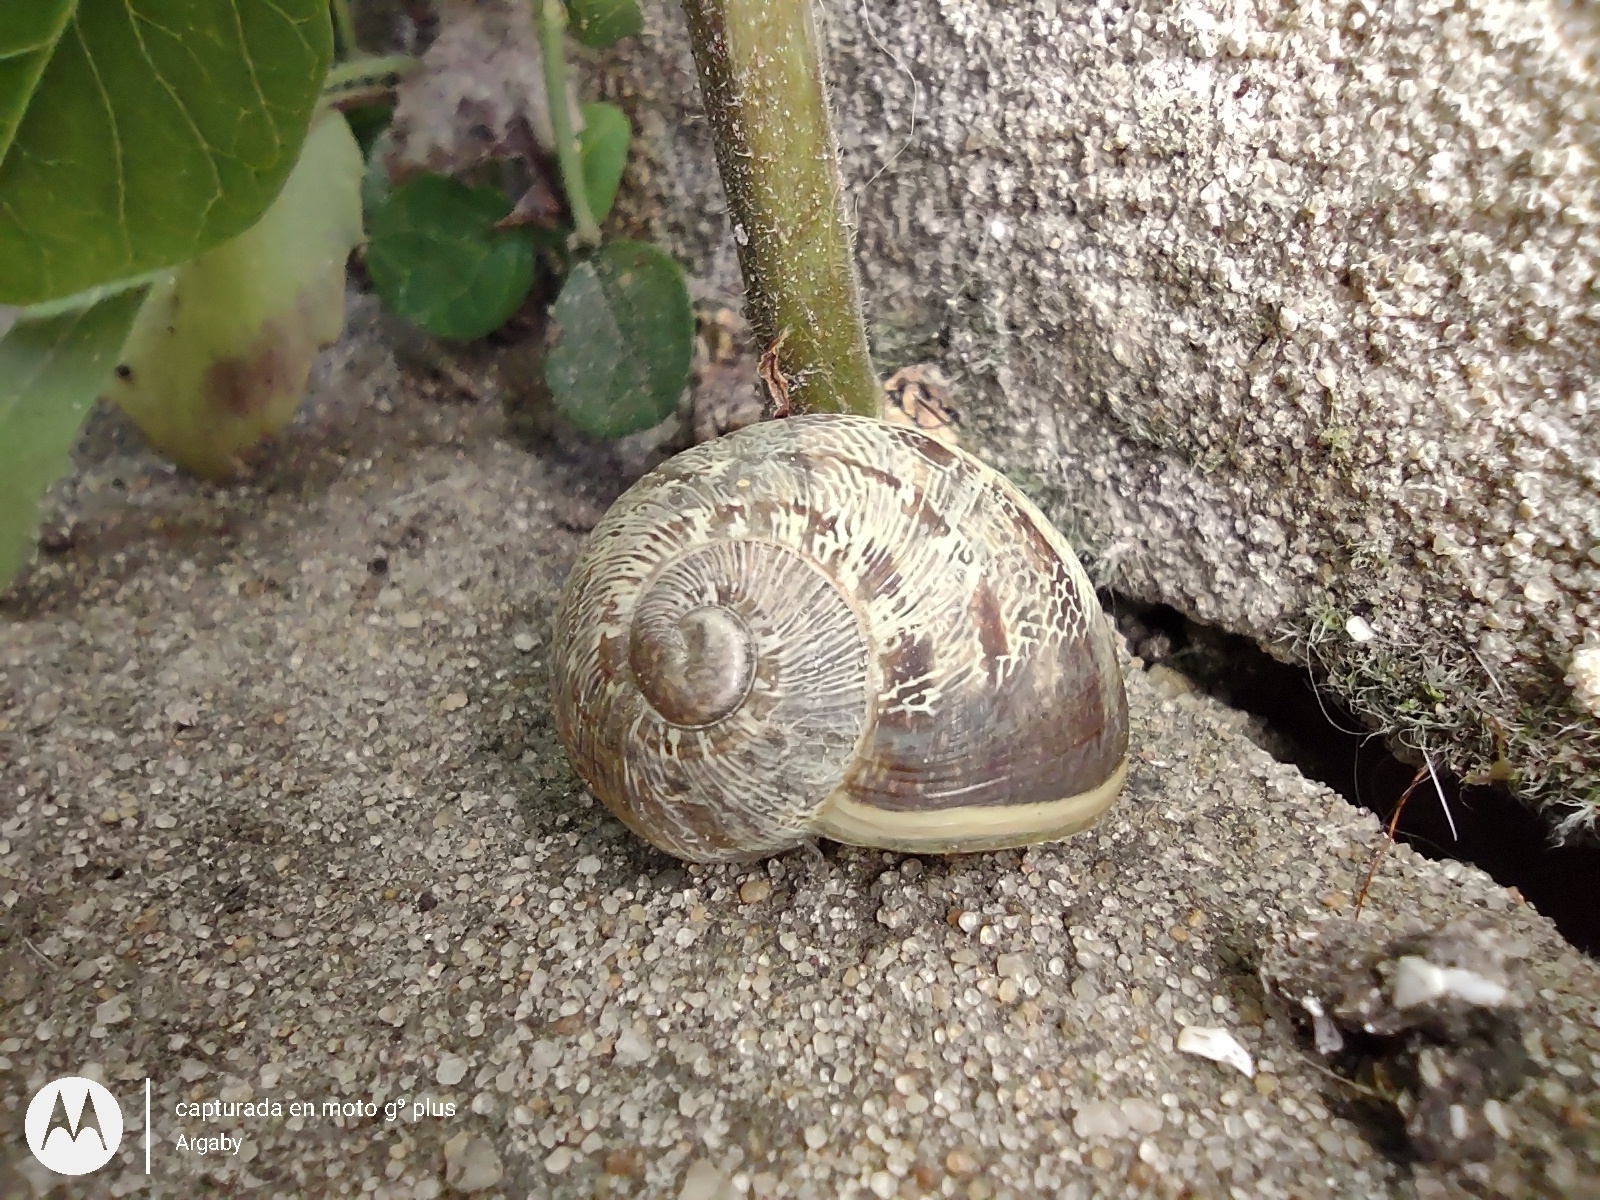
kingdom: Animalia
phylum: Mollusca
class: Gastropoda
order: Stylommatophora
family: Helicidae
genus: Cornu
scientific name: Cornu aspersum
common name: Brown garden snail
